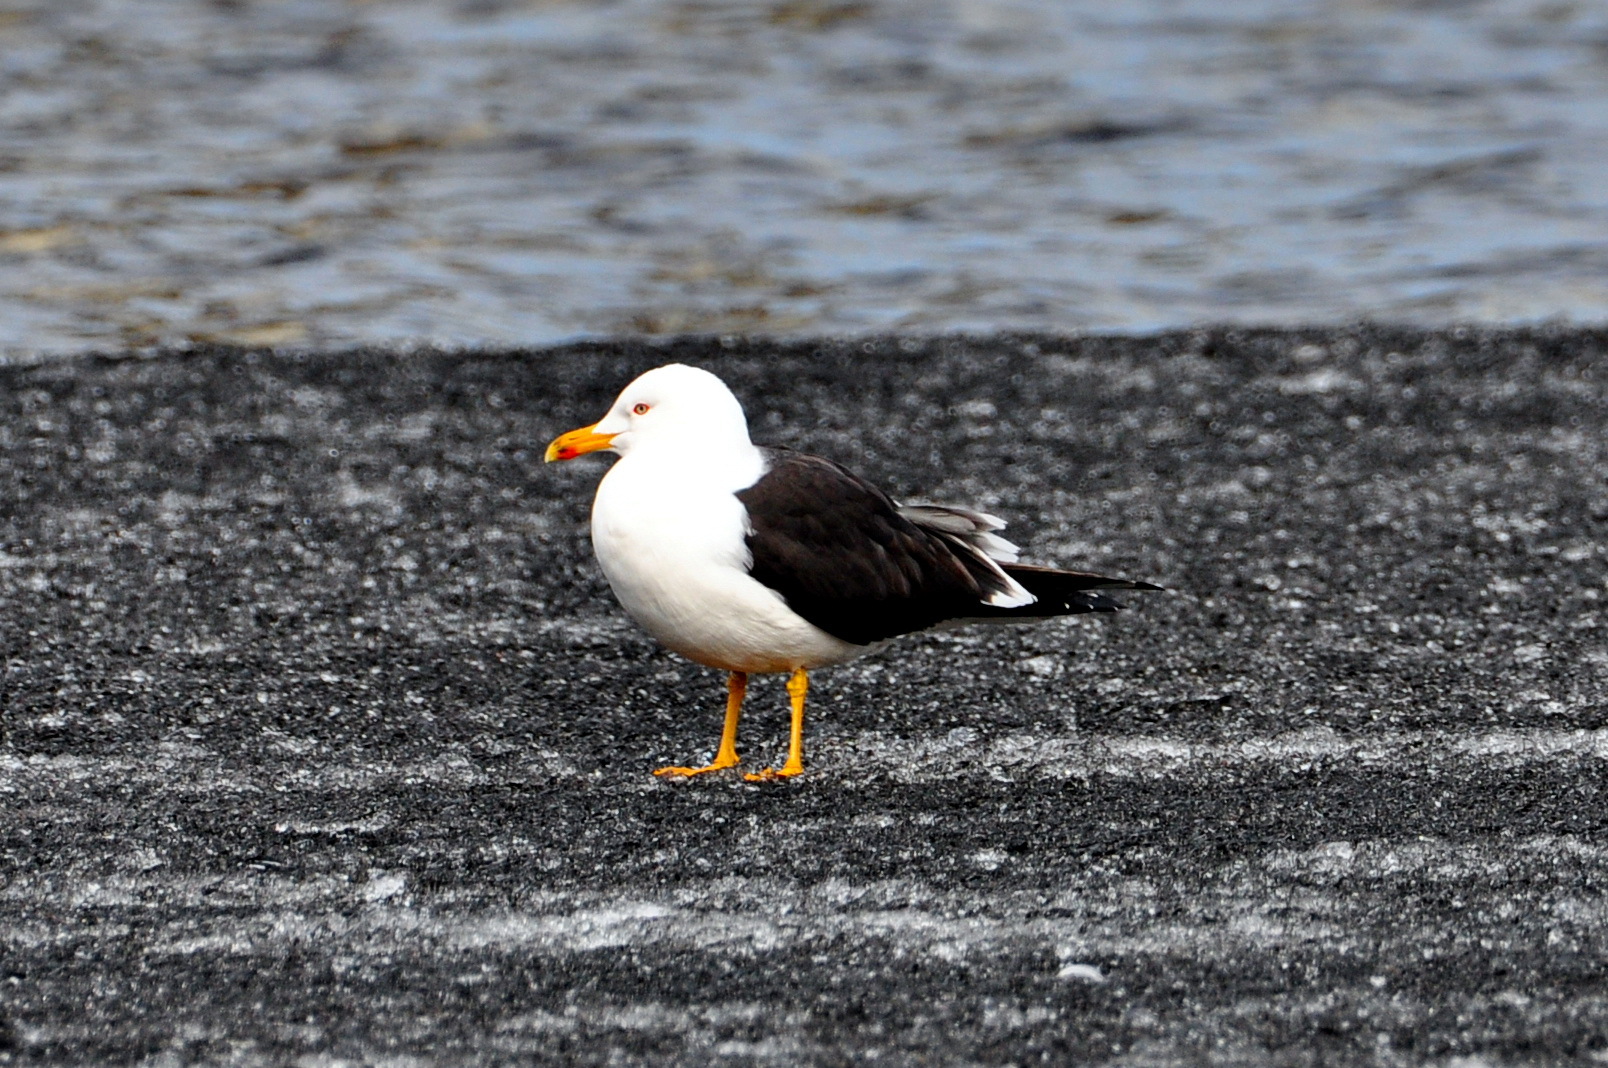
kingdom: Animalia
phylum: Chordata
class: Aves
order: Charadriiformes
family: Laridae
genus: Larus
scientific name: Larus fuscus
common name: Lesser black-backed gull
